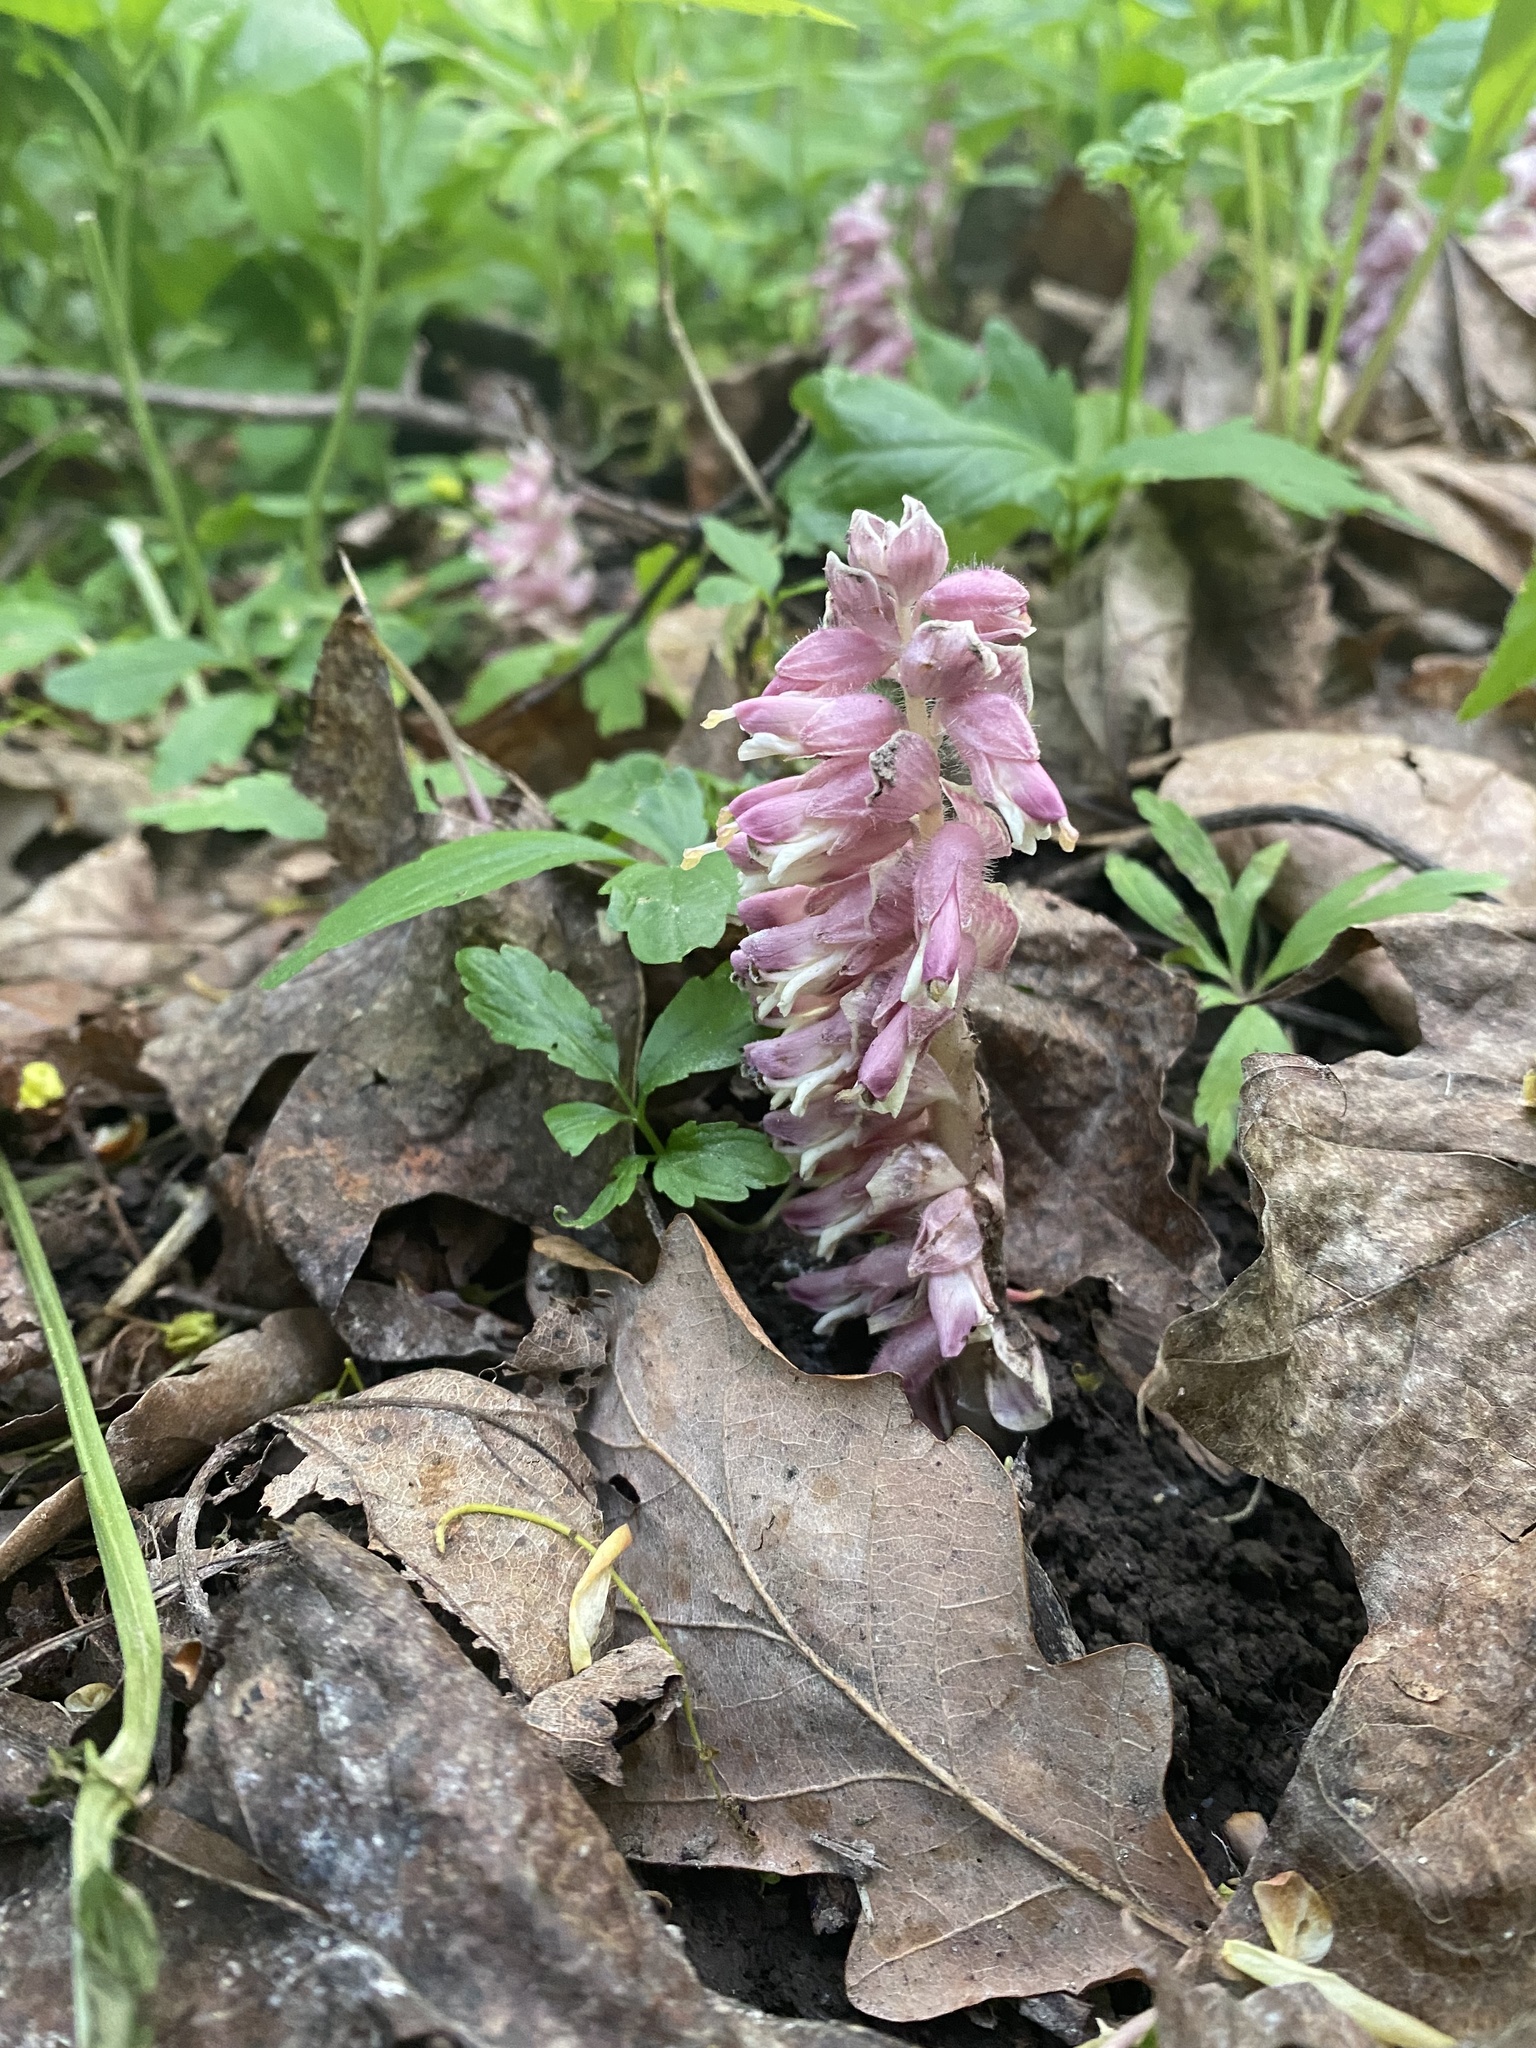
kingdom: Plantae
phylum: Tracheophyta
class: Magnoliopsida
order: Lamiales
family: Orobanchaceae
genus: Lathraea
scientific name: Lathraea squamaria
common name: Toothwort
